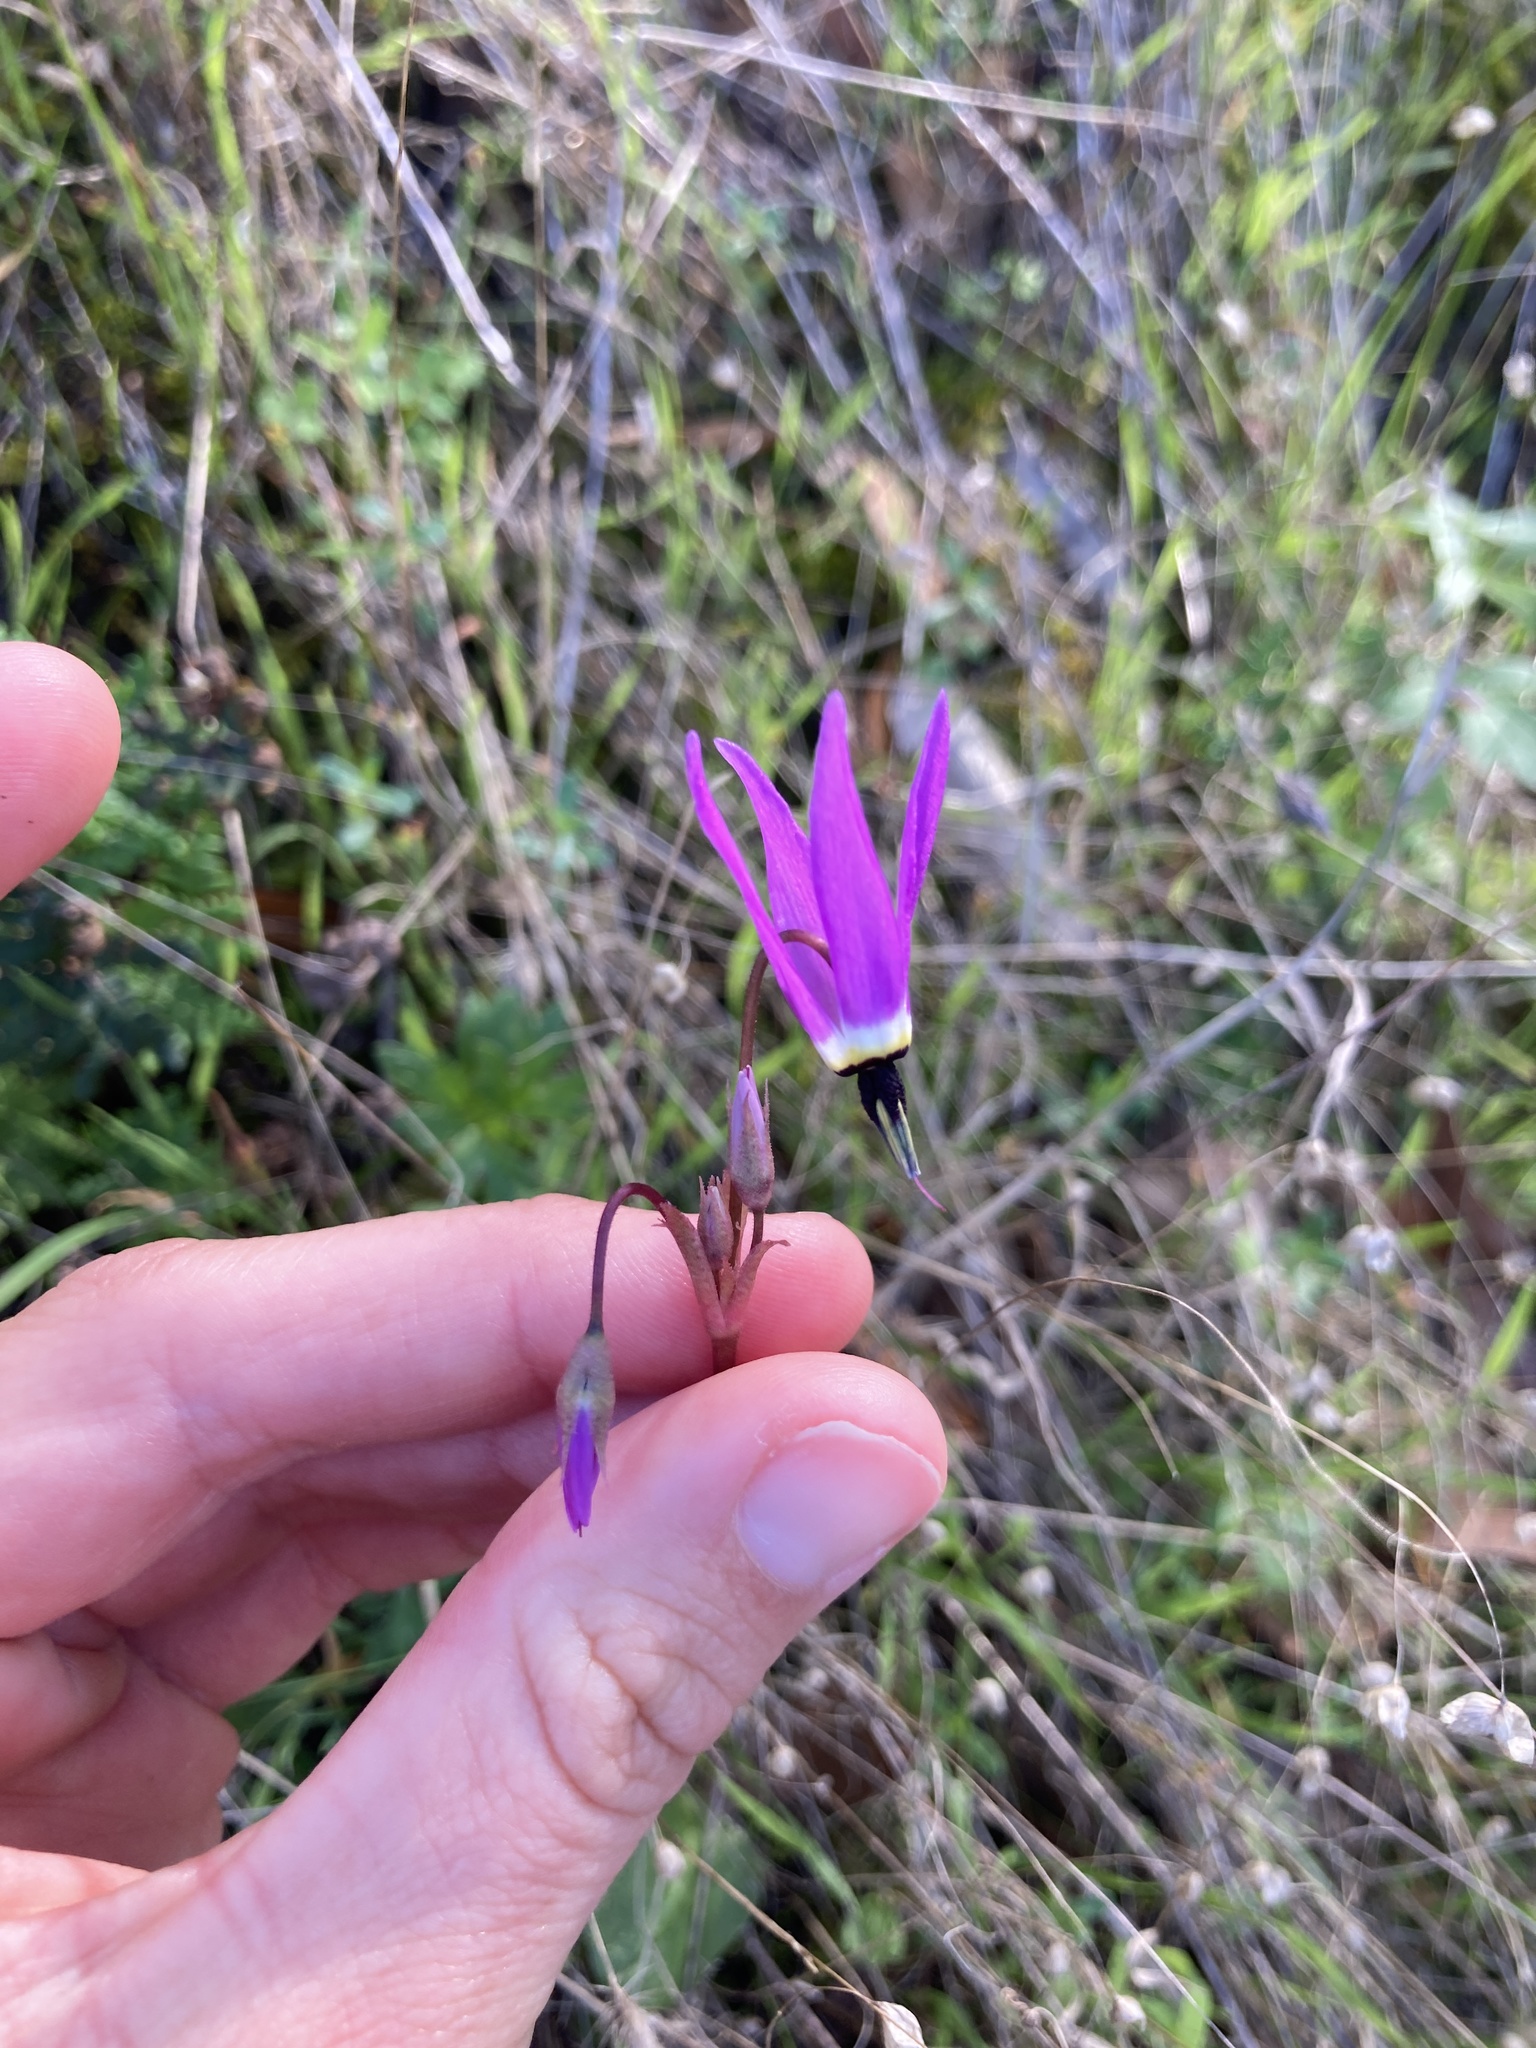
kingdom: Plantae
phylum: Tracheophyta
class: Magnoliopsida
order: Ericales
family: Primulaceae
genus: Dodecatheon
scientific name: Dodecatheon hendersonii
